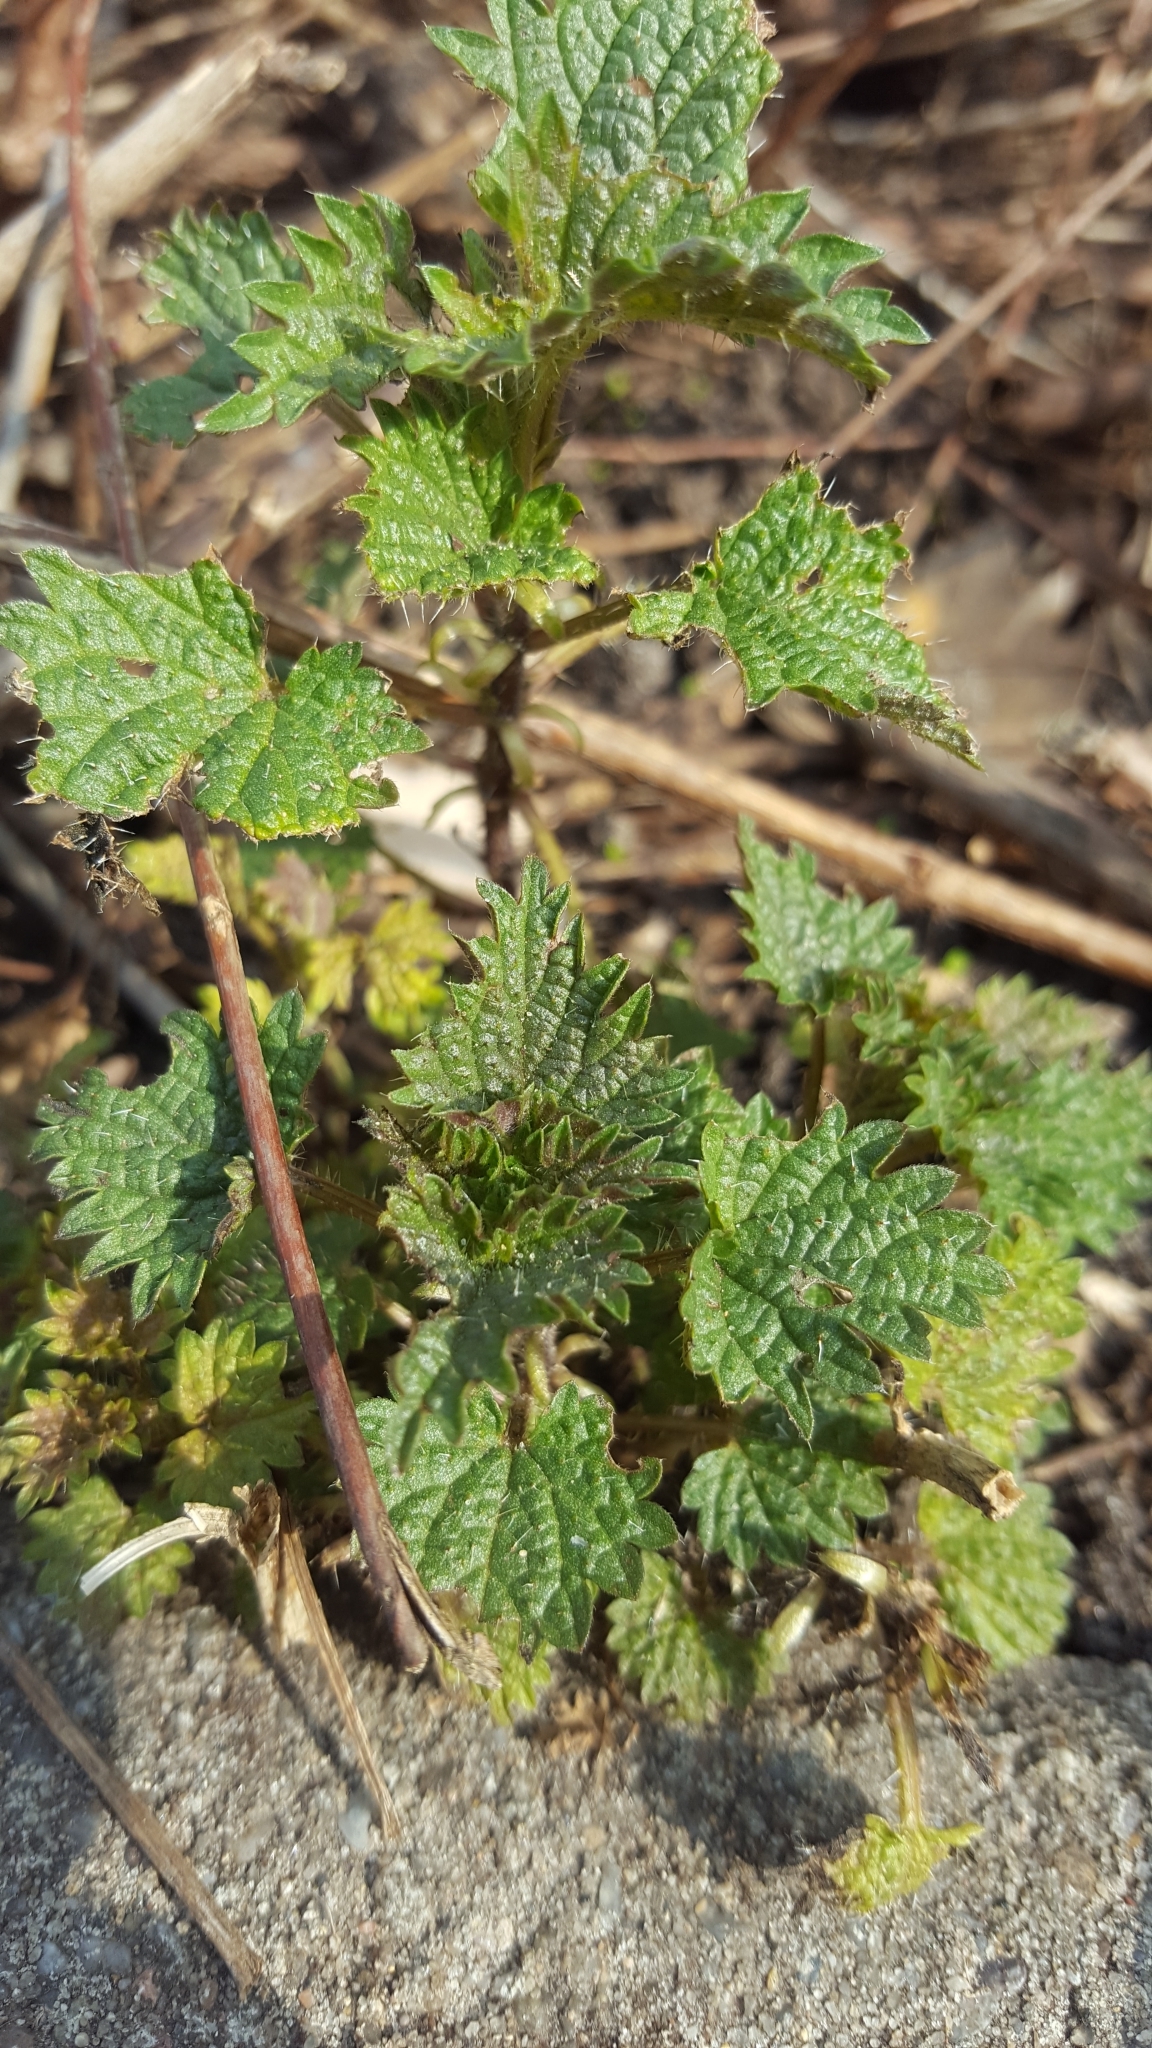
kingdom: Plantae
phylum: Tracheophyta
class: Magnoliopsida
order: Rosales
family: Urticaceae
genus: Urtica
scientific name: Urtica dioica
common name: Common nettle
